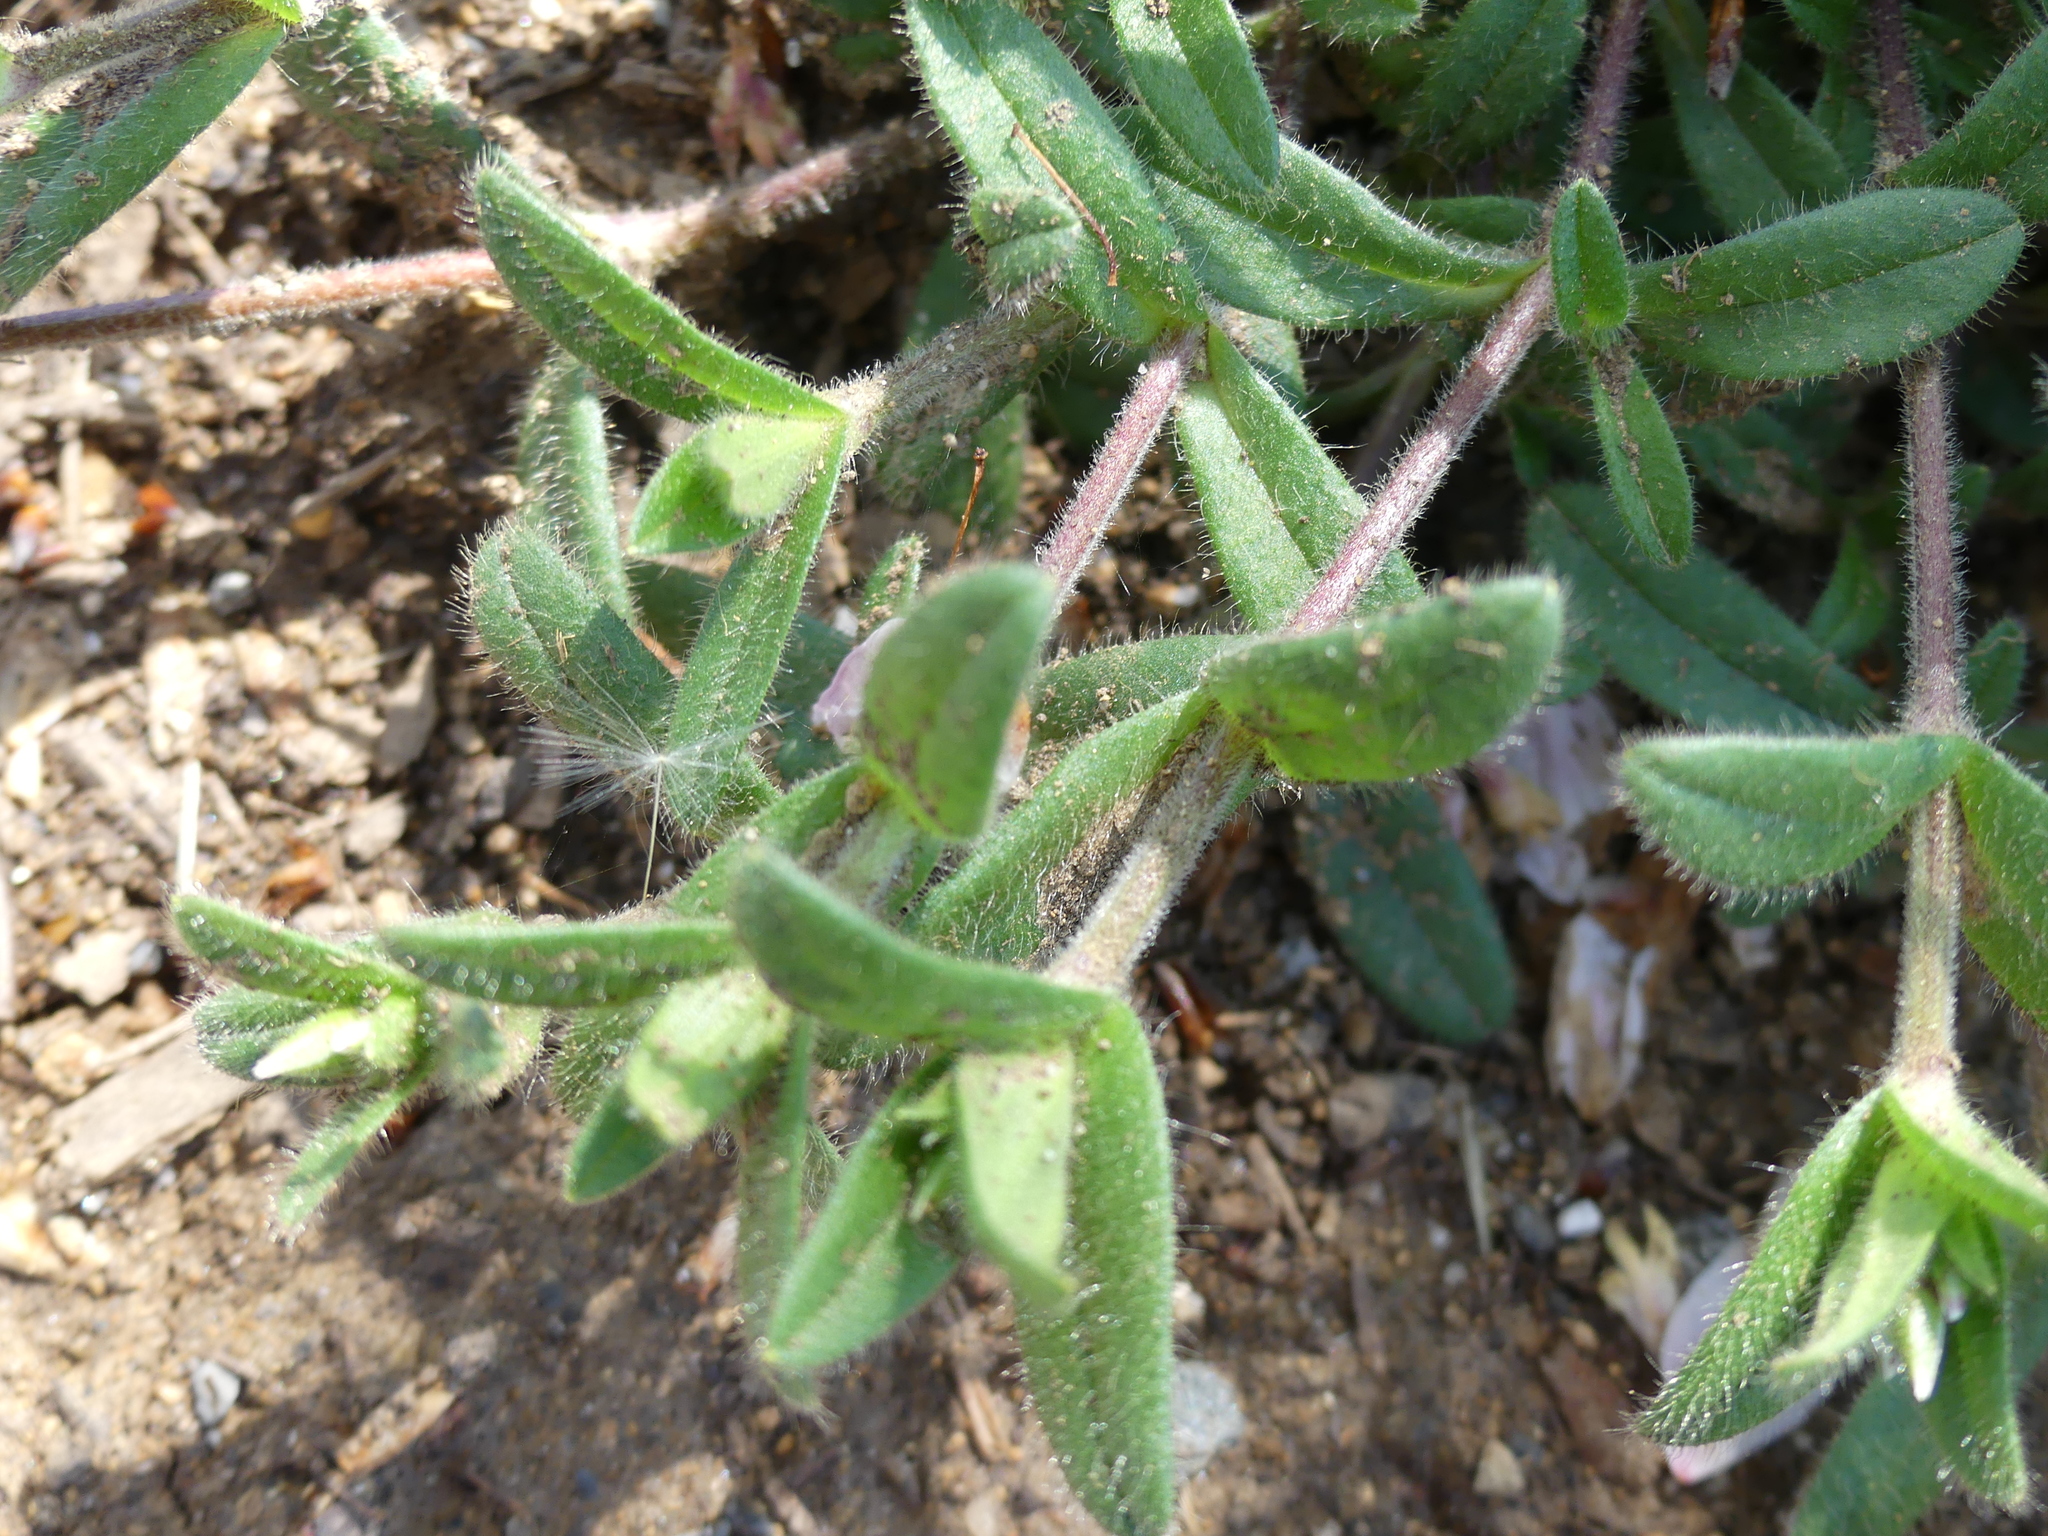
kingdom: Plantae
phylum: Tracheophyta
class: Magnoliopsida
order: Caryophyllales
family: Caryophyllaceae
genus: Cerastium
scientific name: Cerastium fontanum
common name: Common mouse-ear
